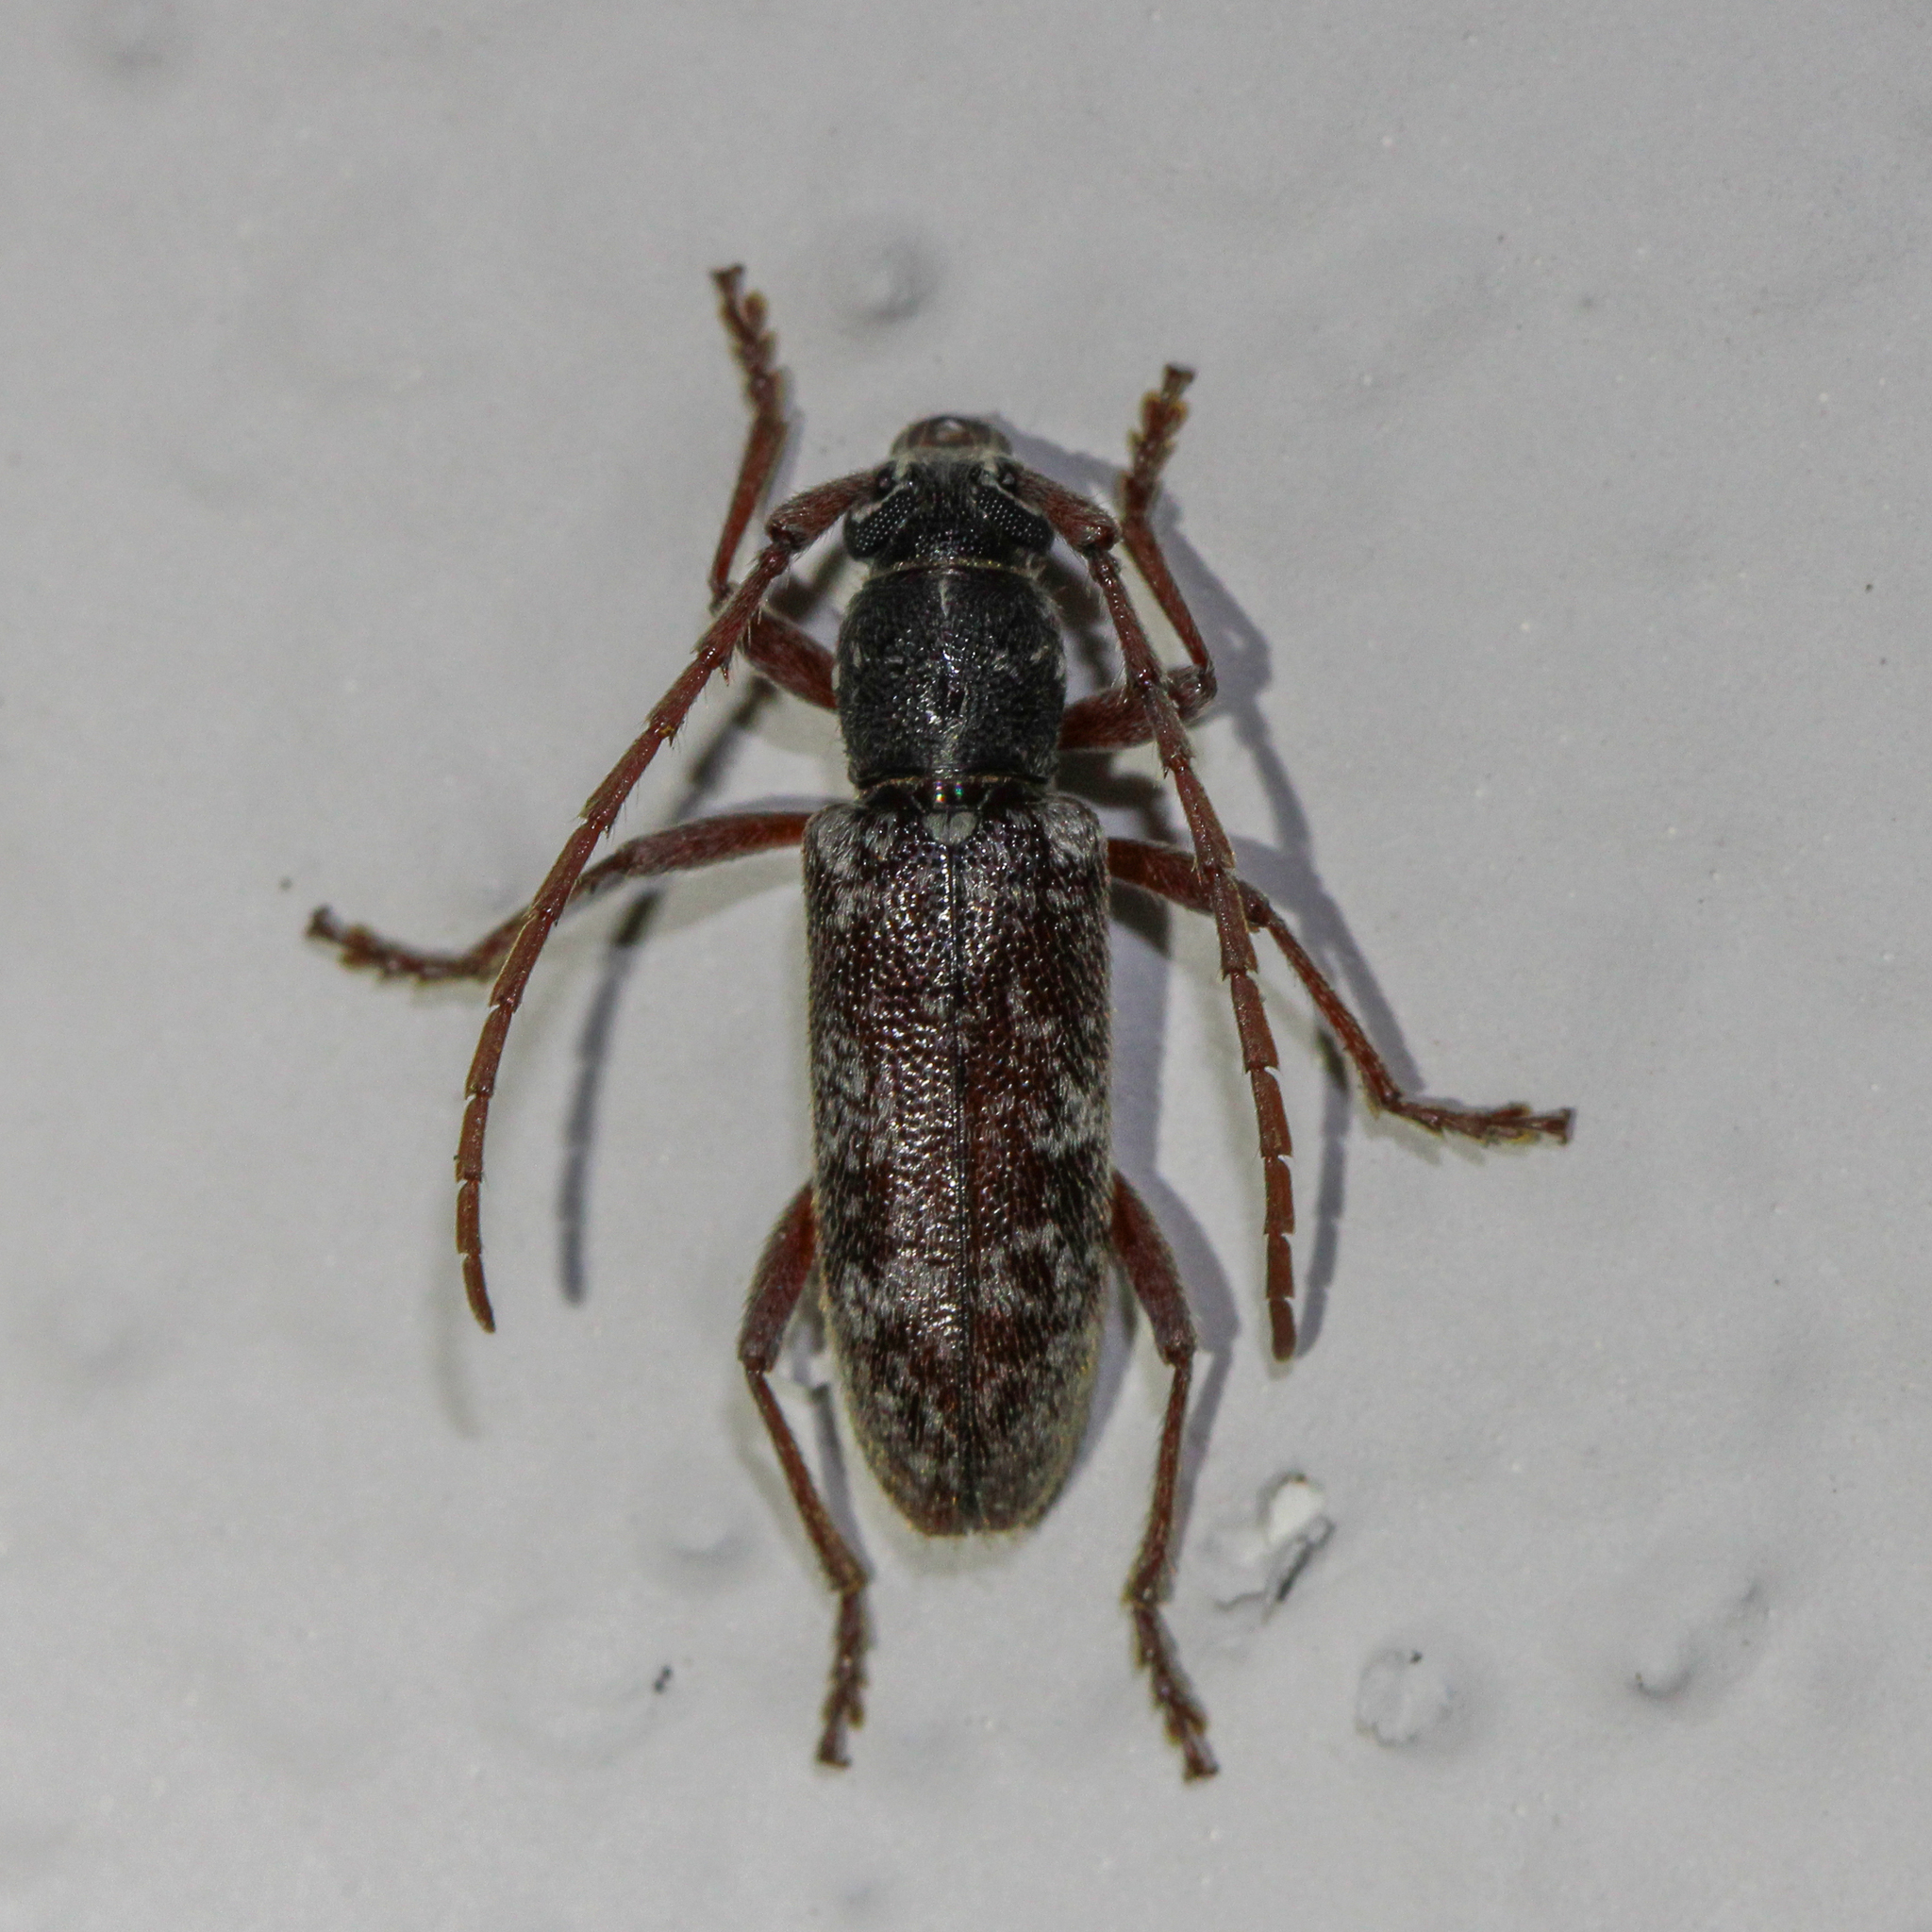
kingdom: Animalia
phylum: Arthropoda
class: Insecta
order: Coleoptera
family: Cerambycidae
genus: Anelaphus
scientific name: Anelaphus inermis
